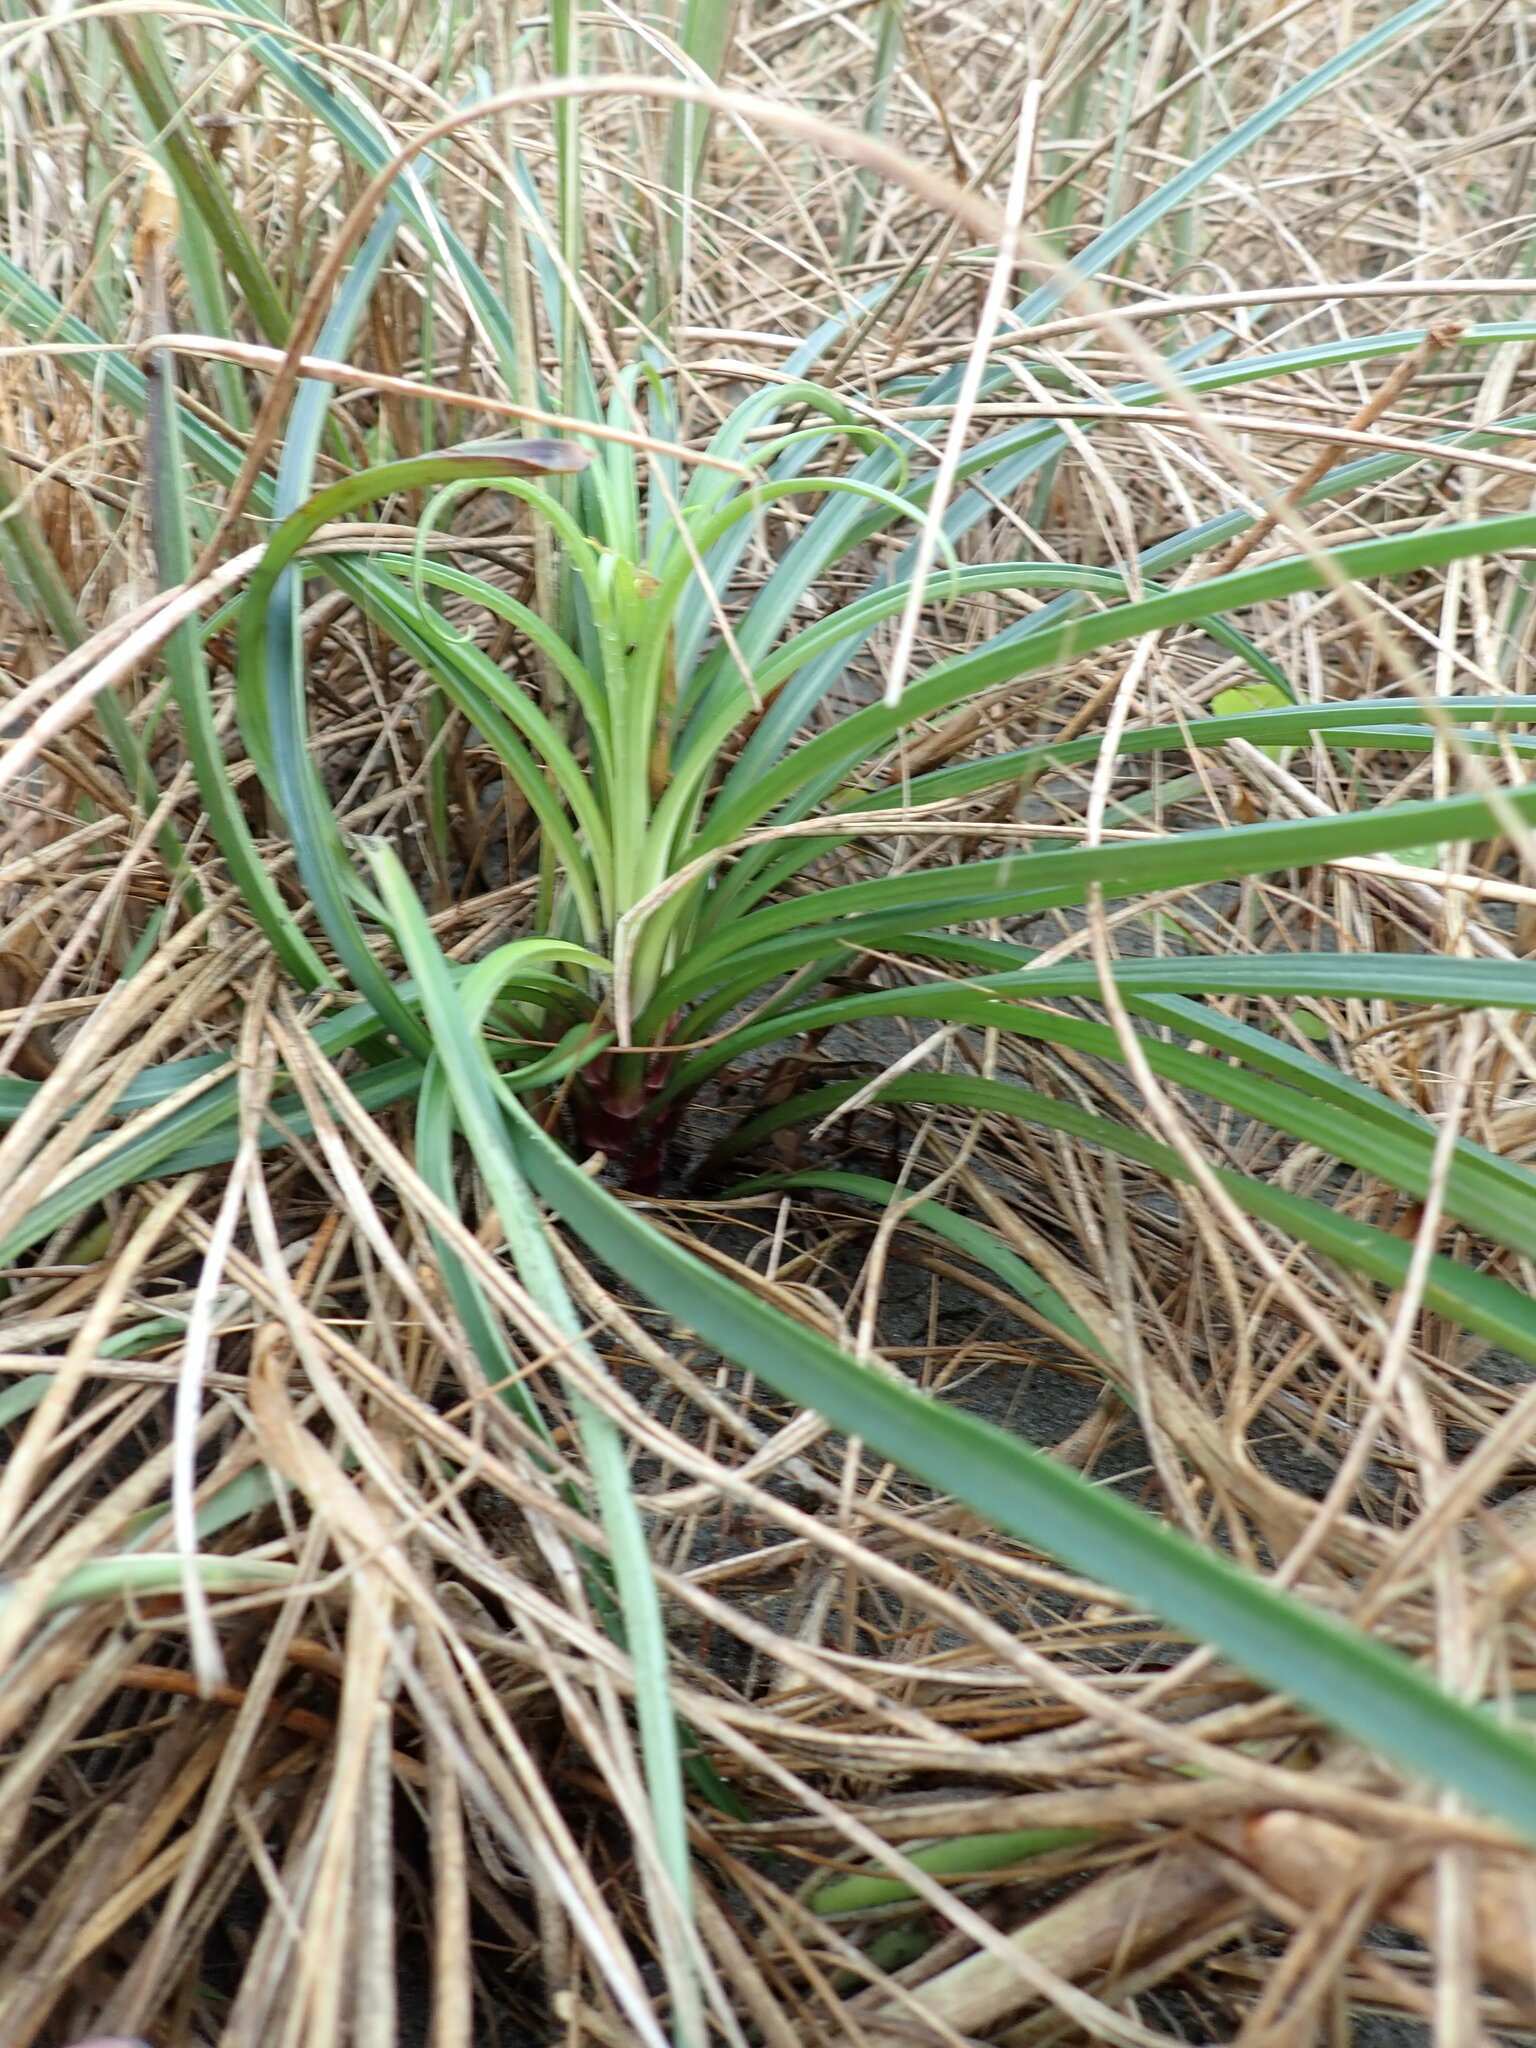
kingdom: Plantae
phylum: Tracheophyta
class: Liliopsida
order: Liliales
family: Liliaceae
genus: Lilium
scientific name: Lilium formosanum
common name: Formosa lily
